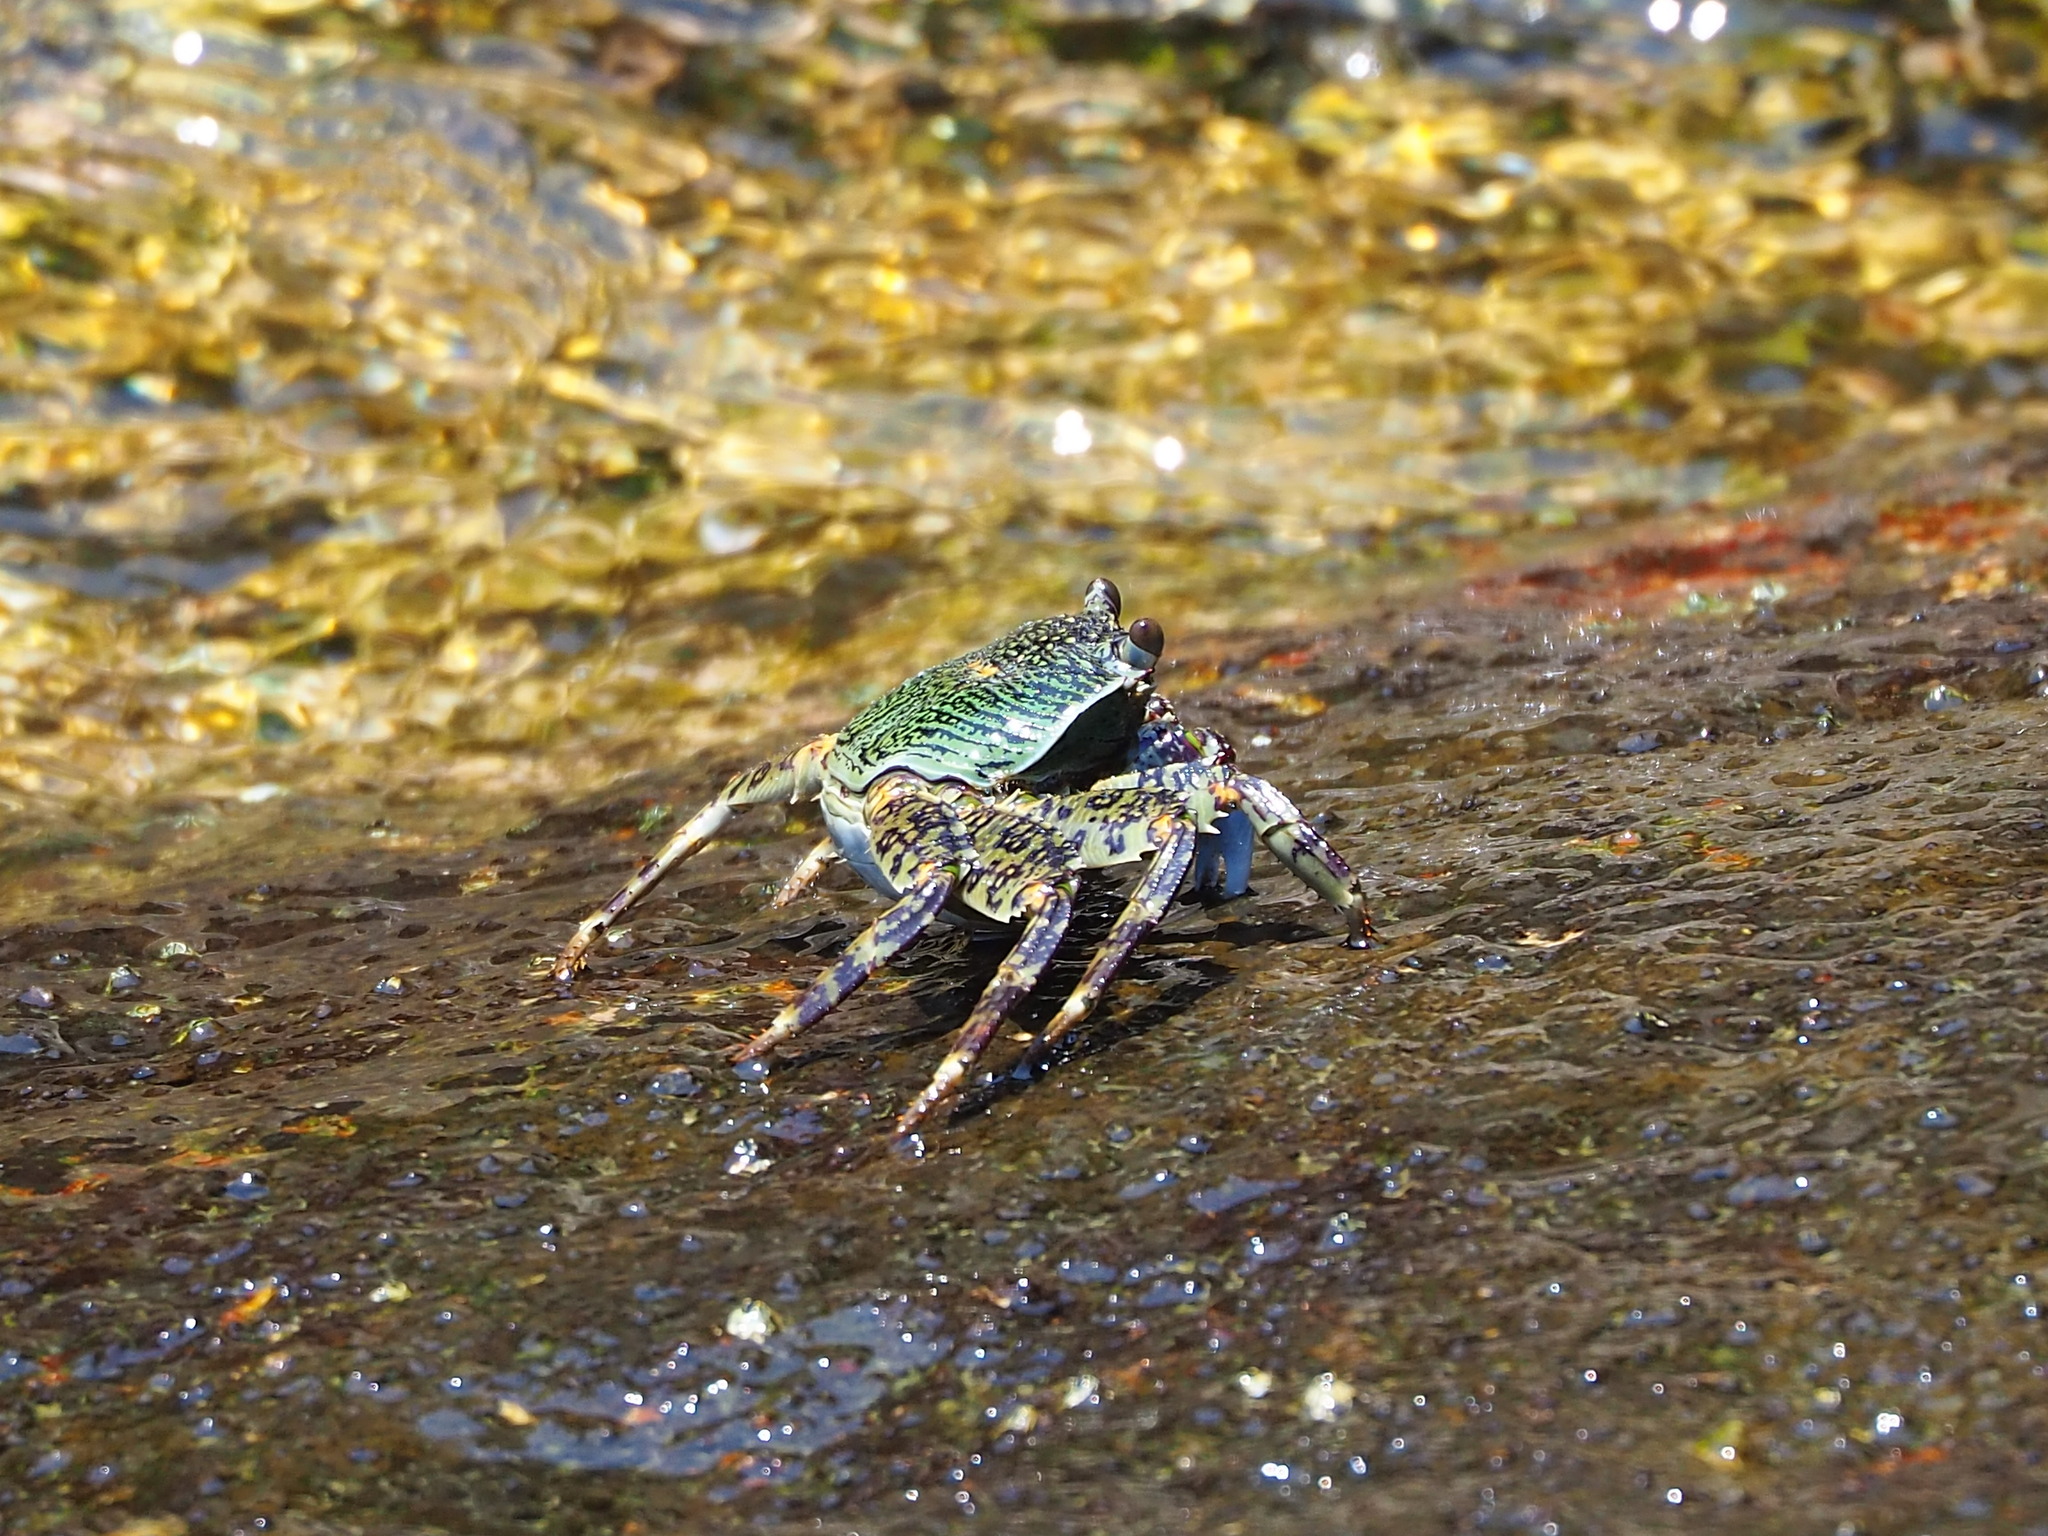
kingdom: Animalia
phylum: Arthropoda
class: Malacostraca
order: Decapoda
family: Grapsidae
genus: Grapsus
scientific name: Grapsus albolineatus
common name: Mottled lightfoot crab
